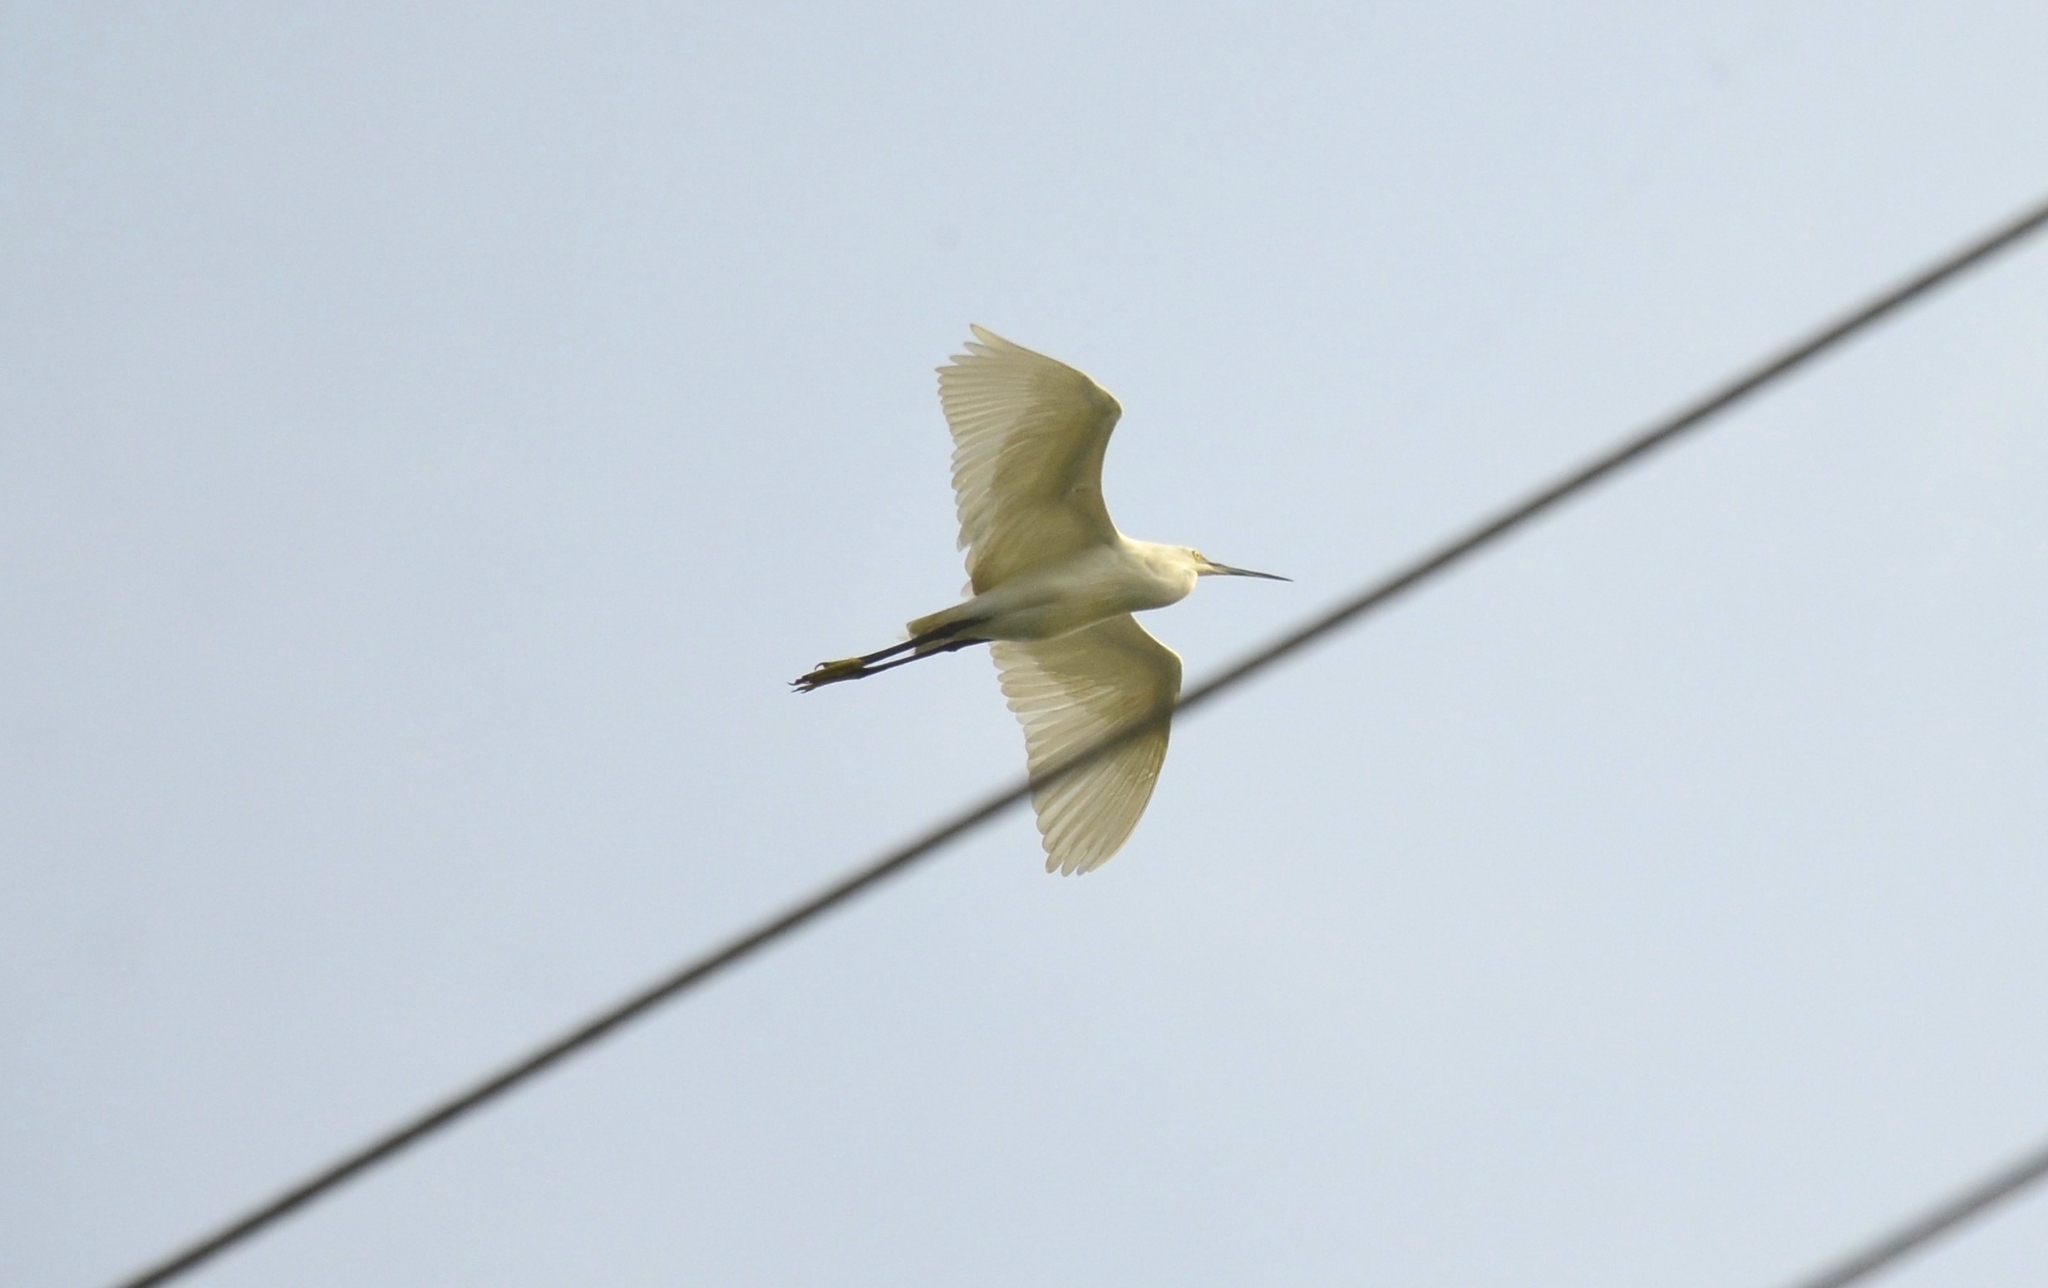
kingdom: Animalia
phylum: Chordata
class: Aves
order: Pelecaniformes
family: Ardeidae
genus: Egretta
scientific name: Egretta garzetta
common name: Little egret
